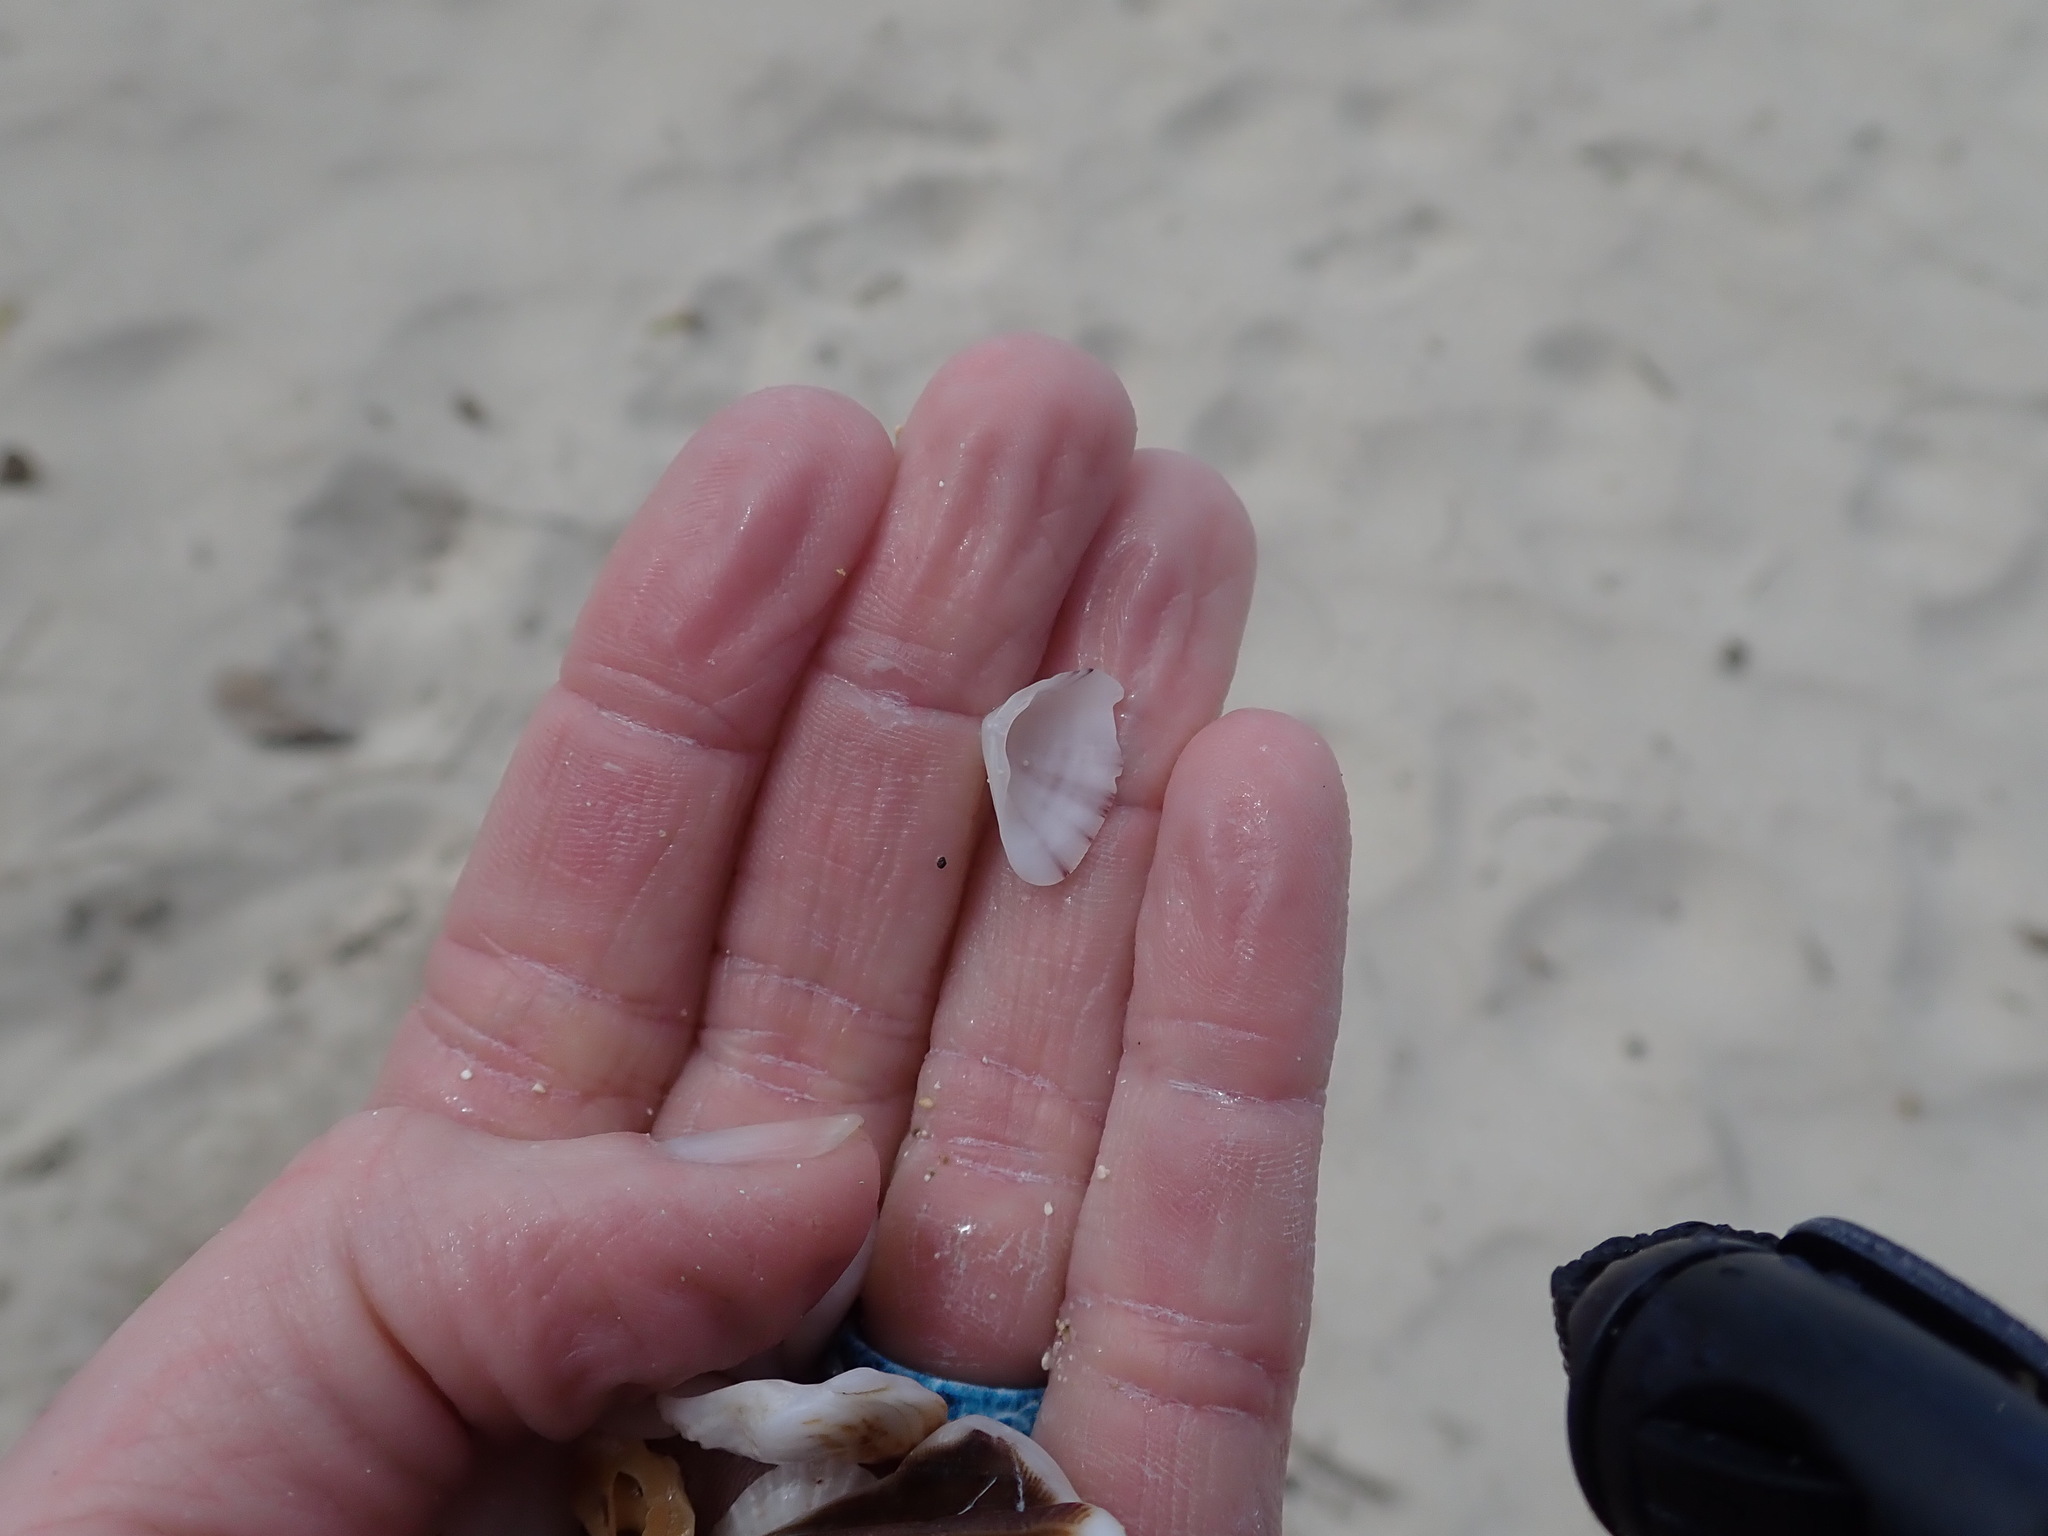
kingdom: Animalia
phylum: Mollusca
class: Bivalvia
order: Cardiida
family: Donacidae
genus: Donax
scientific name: Donax denticulatus
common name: Common caribbean coquina
